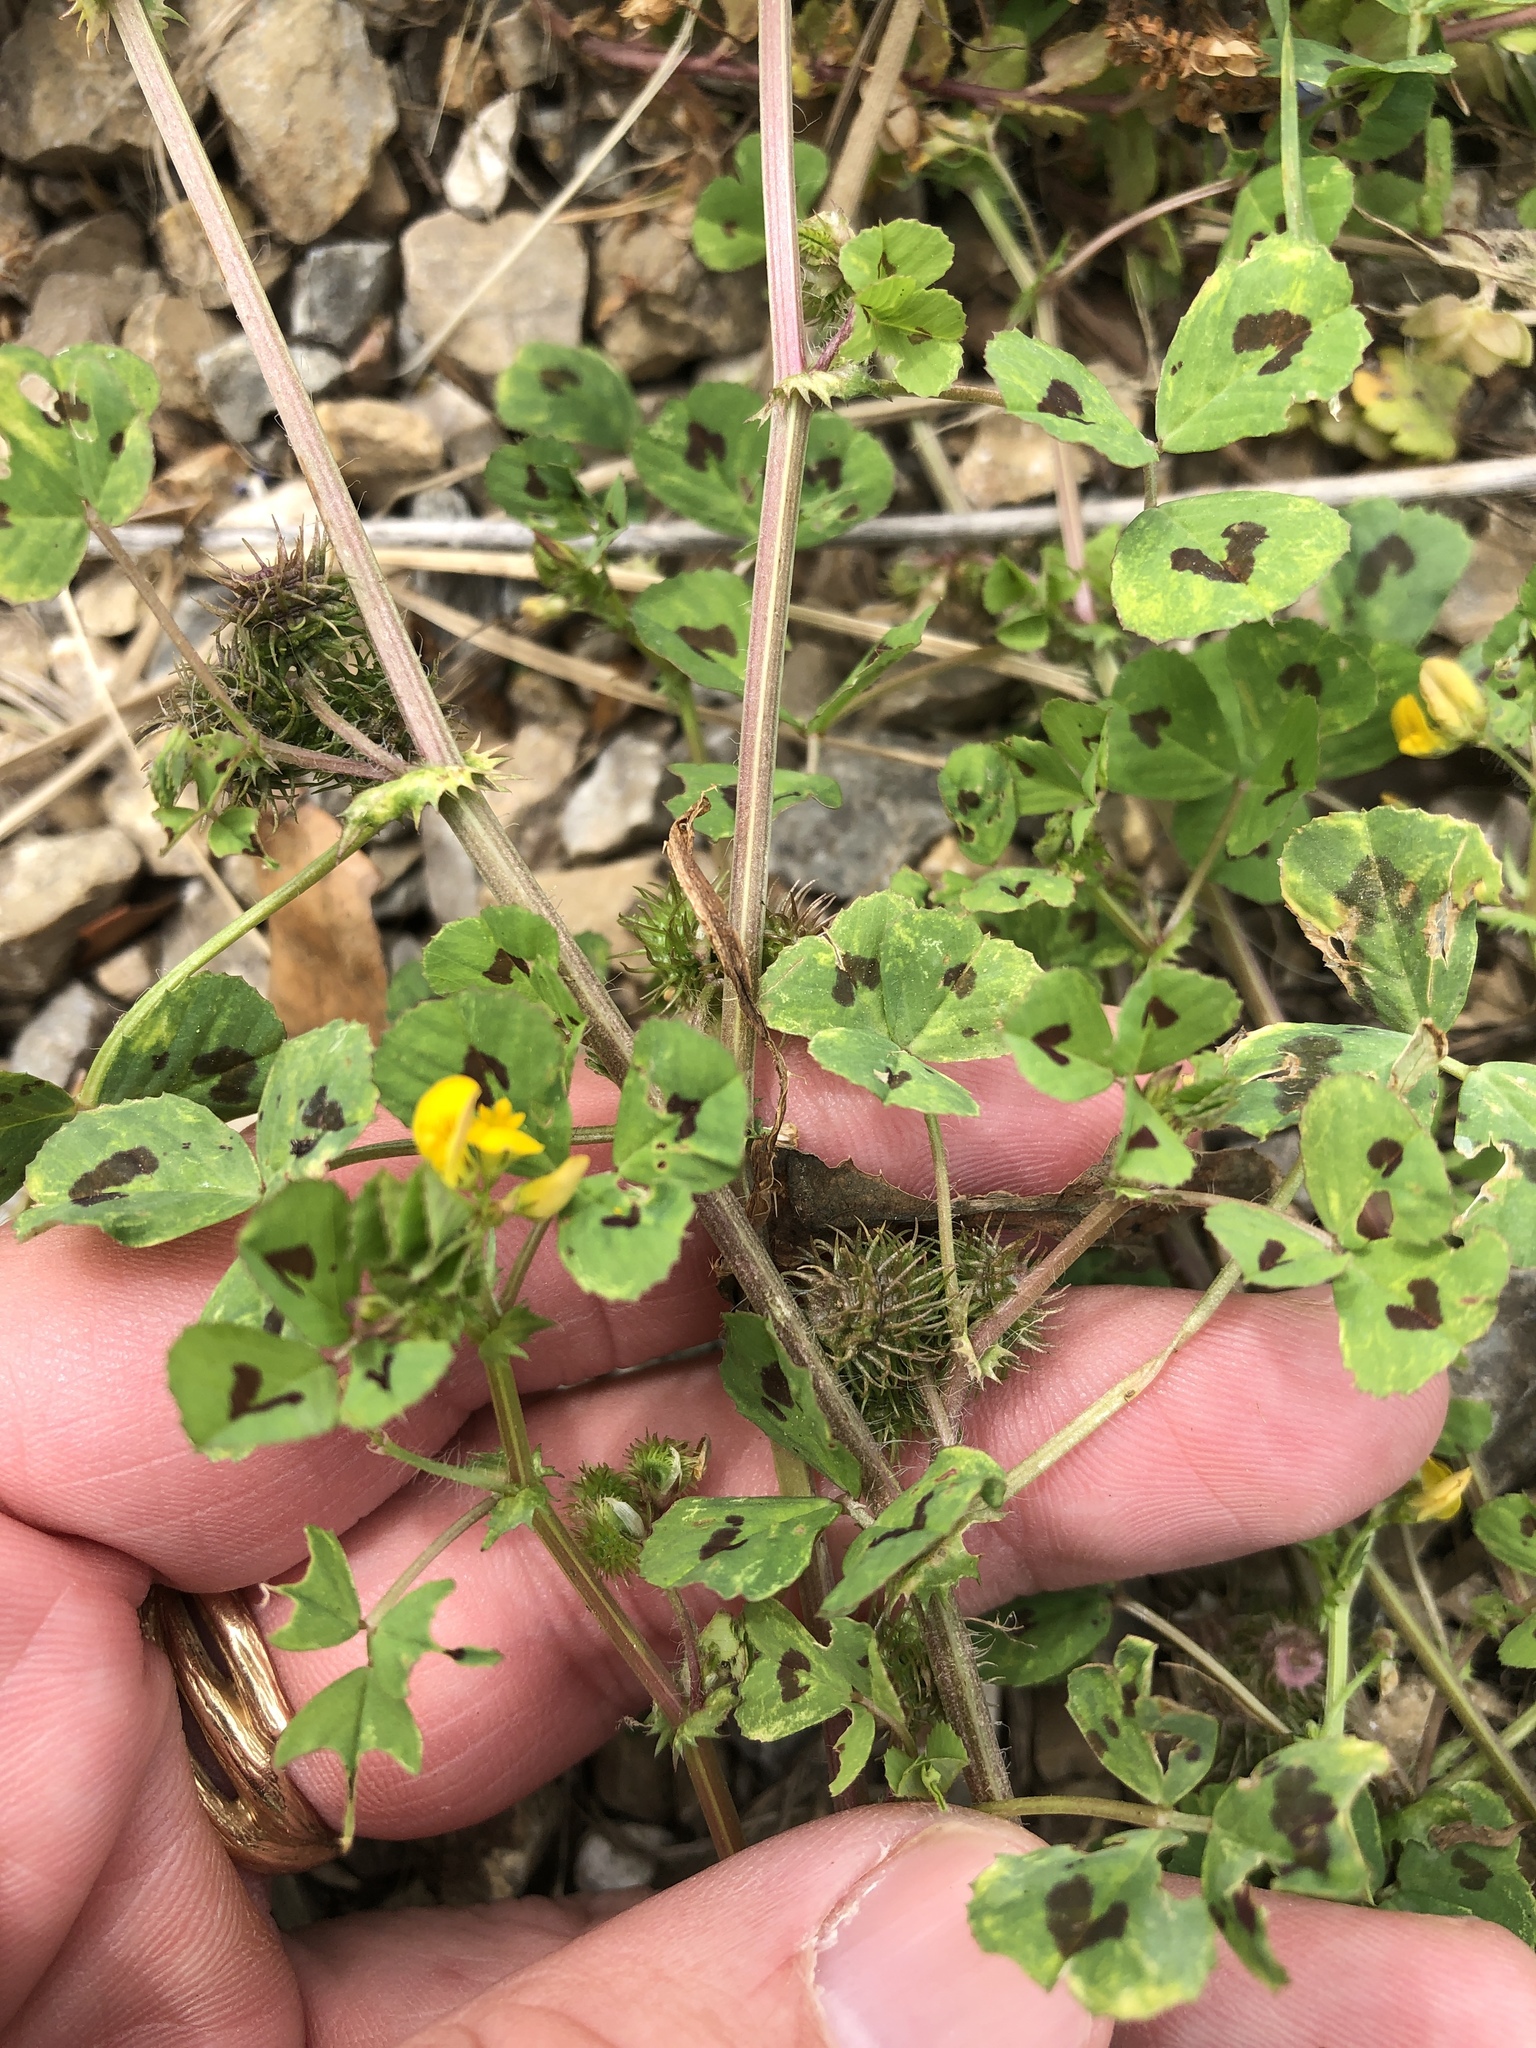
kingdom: Plantae
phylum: Tracheophyta
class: Magnoliopsida
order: Fabales
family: Fabaceae
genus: Medicago
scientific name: Medicago arabica
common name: Spotted medick
